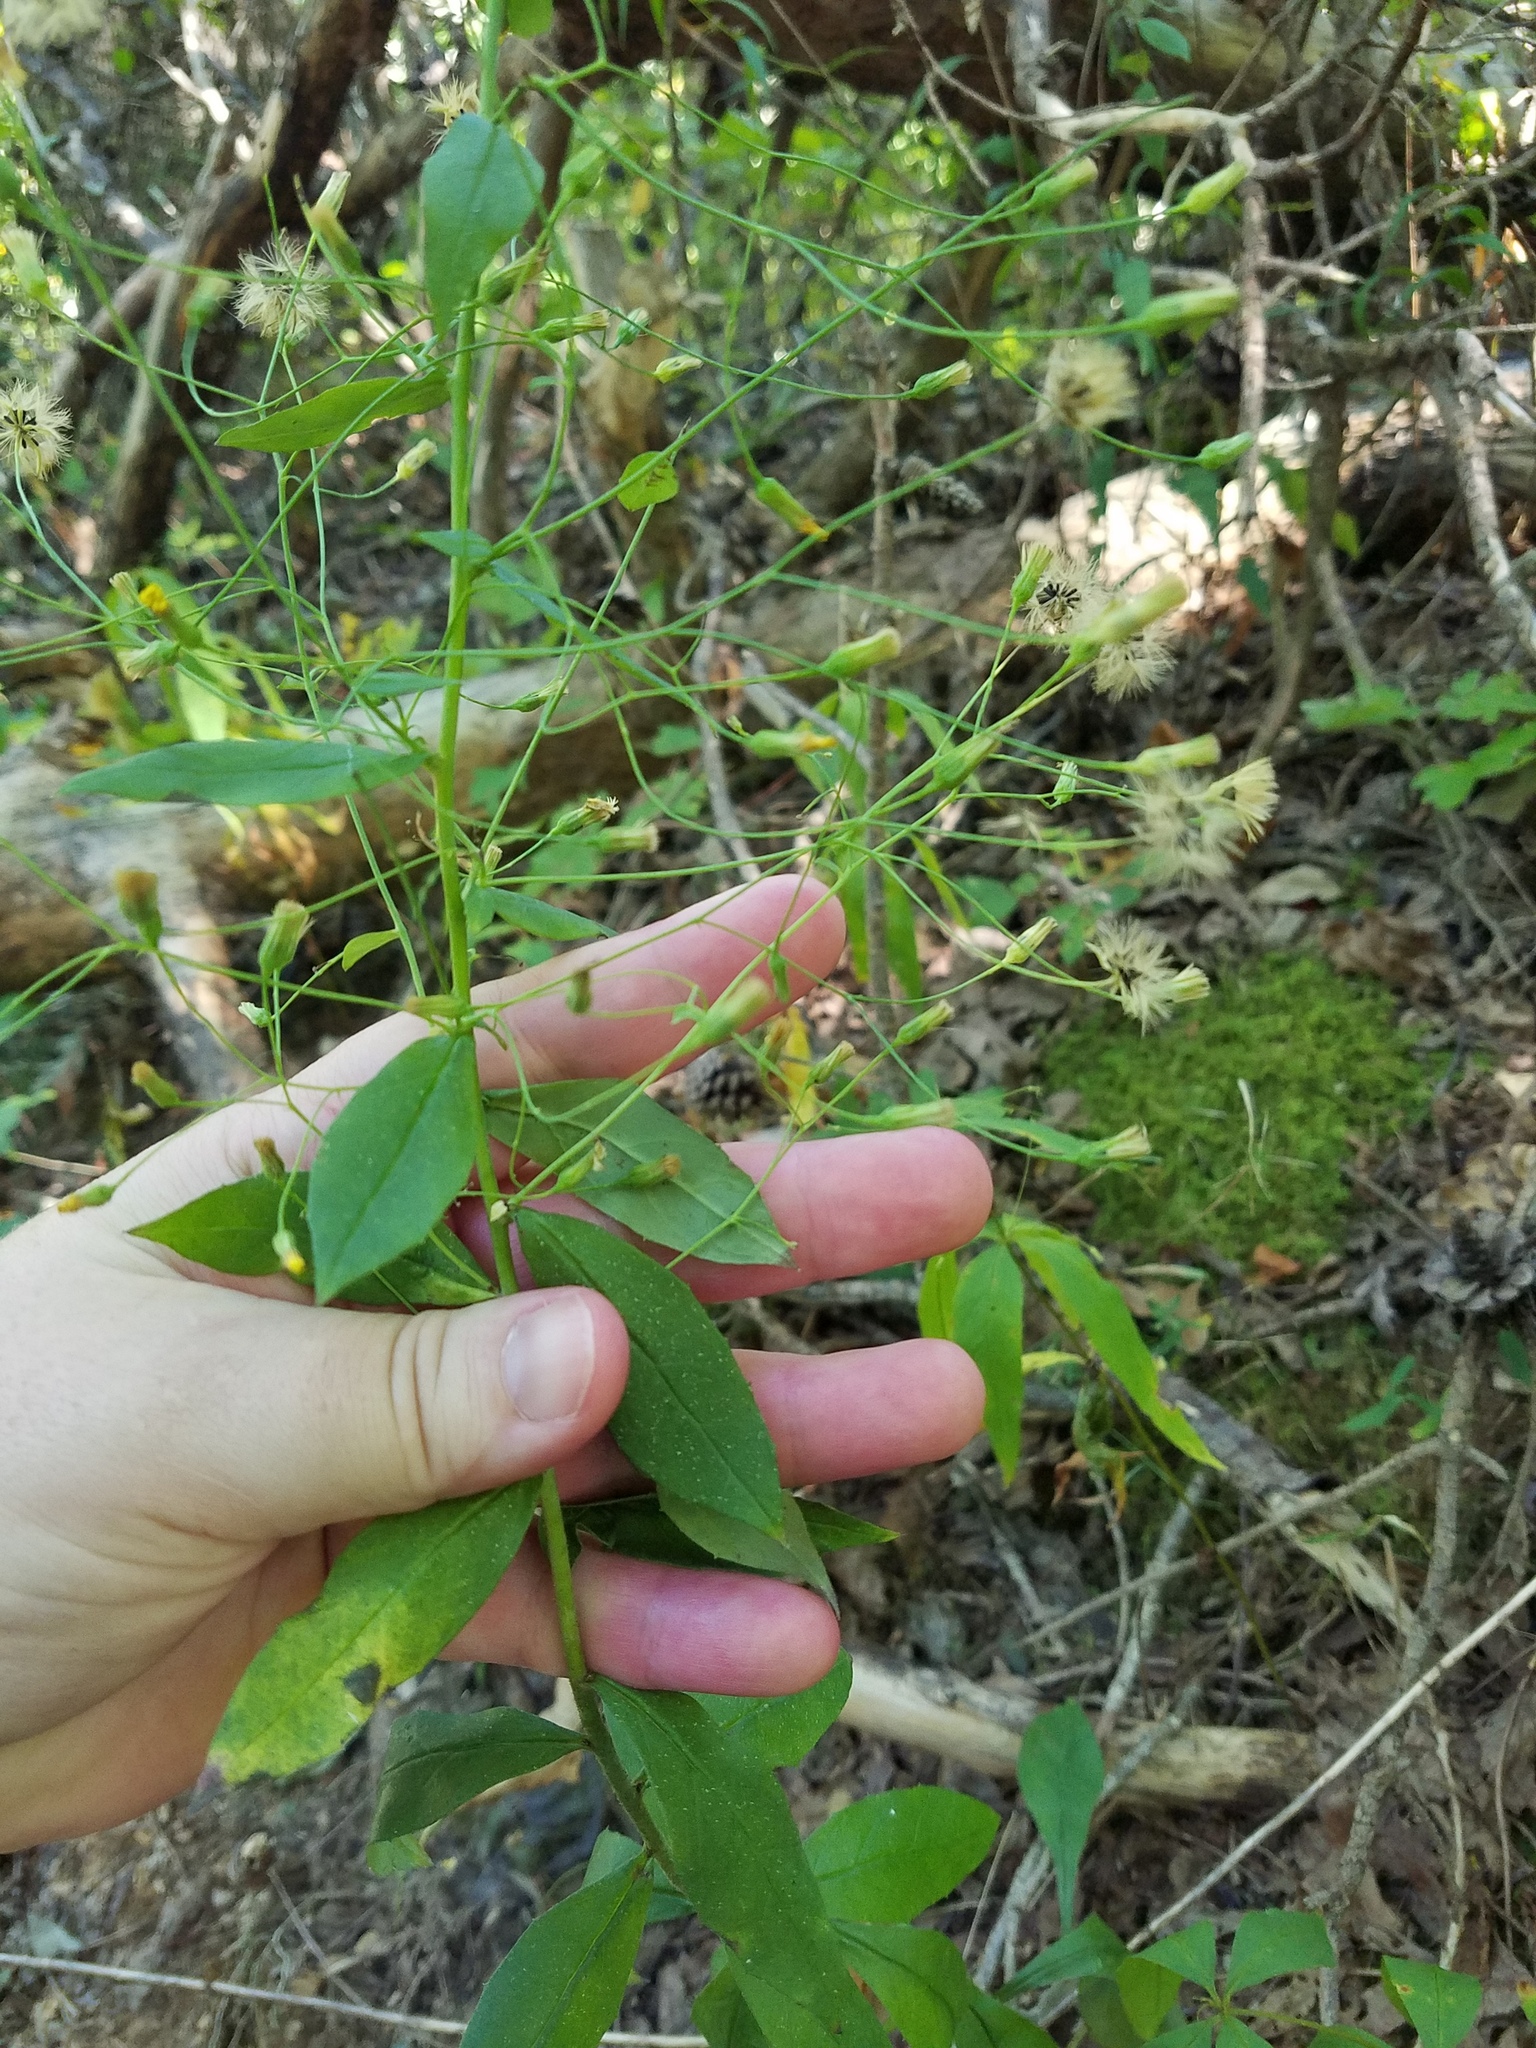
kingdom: Plantae
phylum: Tracheophyta
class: Magnoliopsida
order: Asterales
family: Asteraceae
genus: Hieracium
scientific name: Hieracium paniculatum
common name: Allegheny hawkweed
